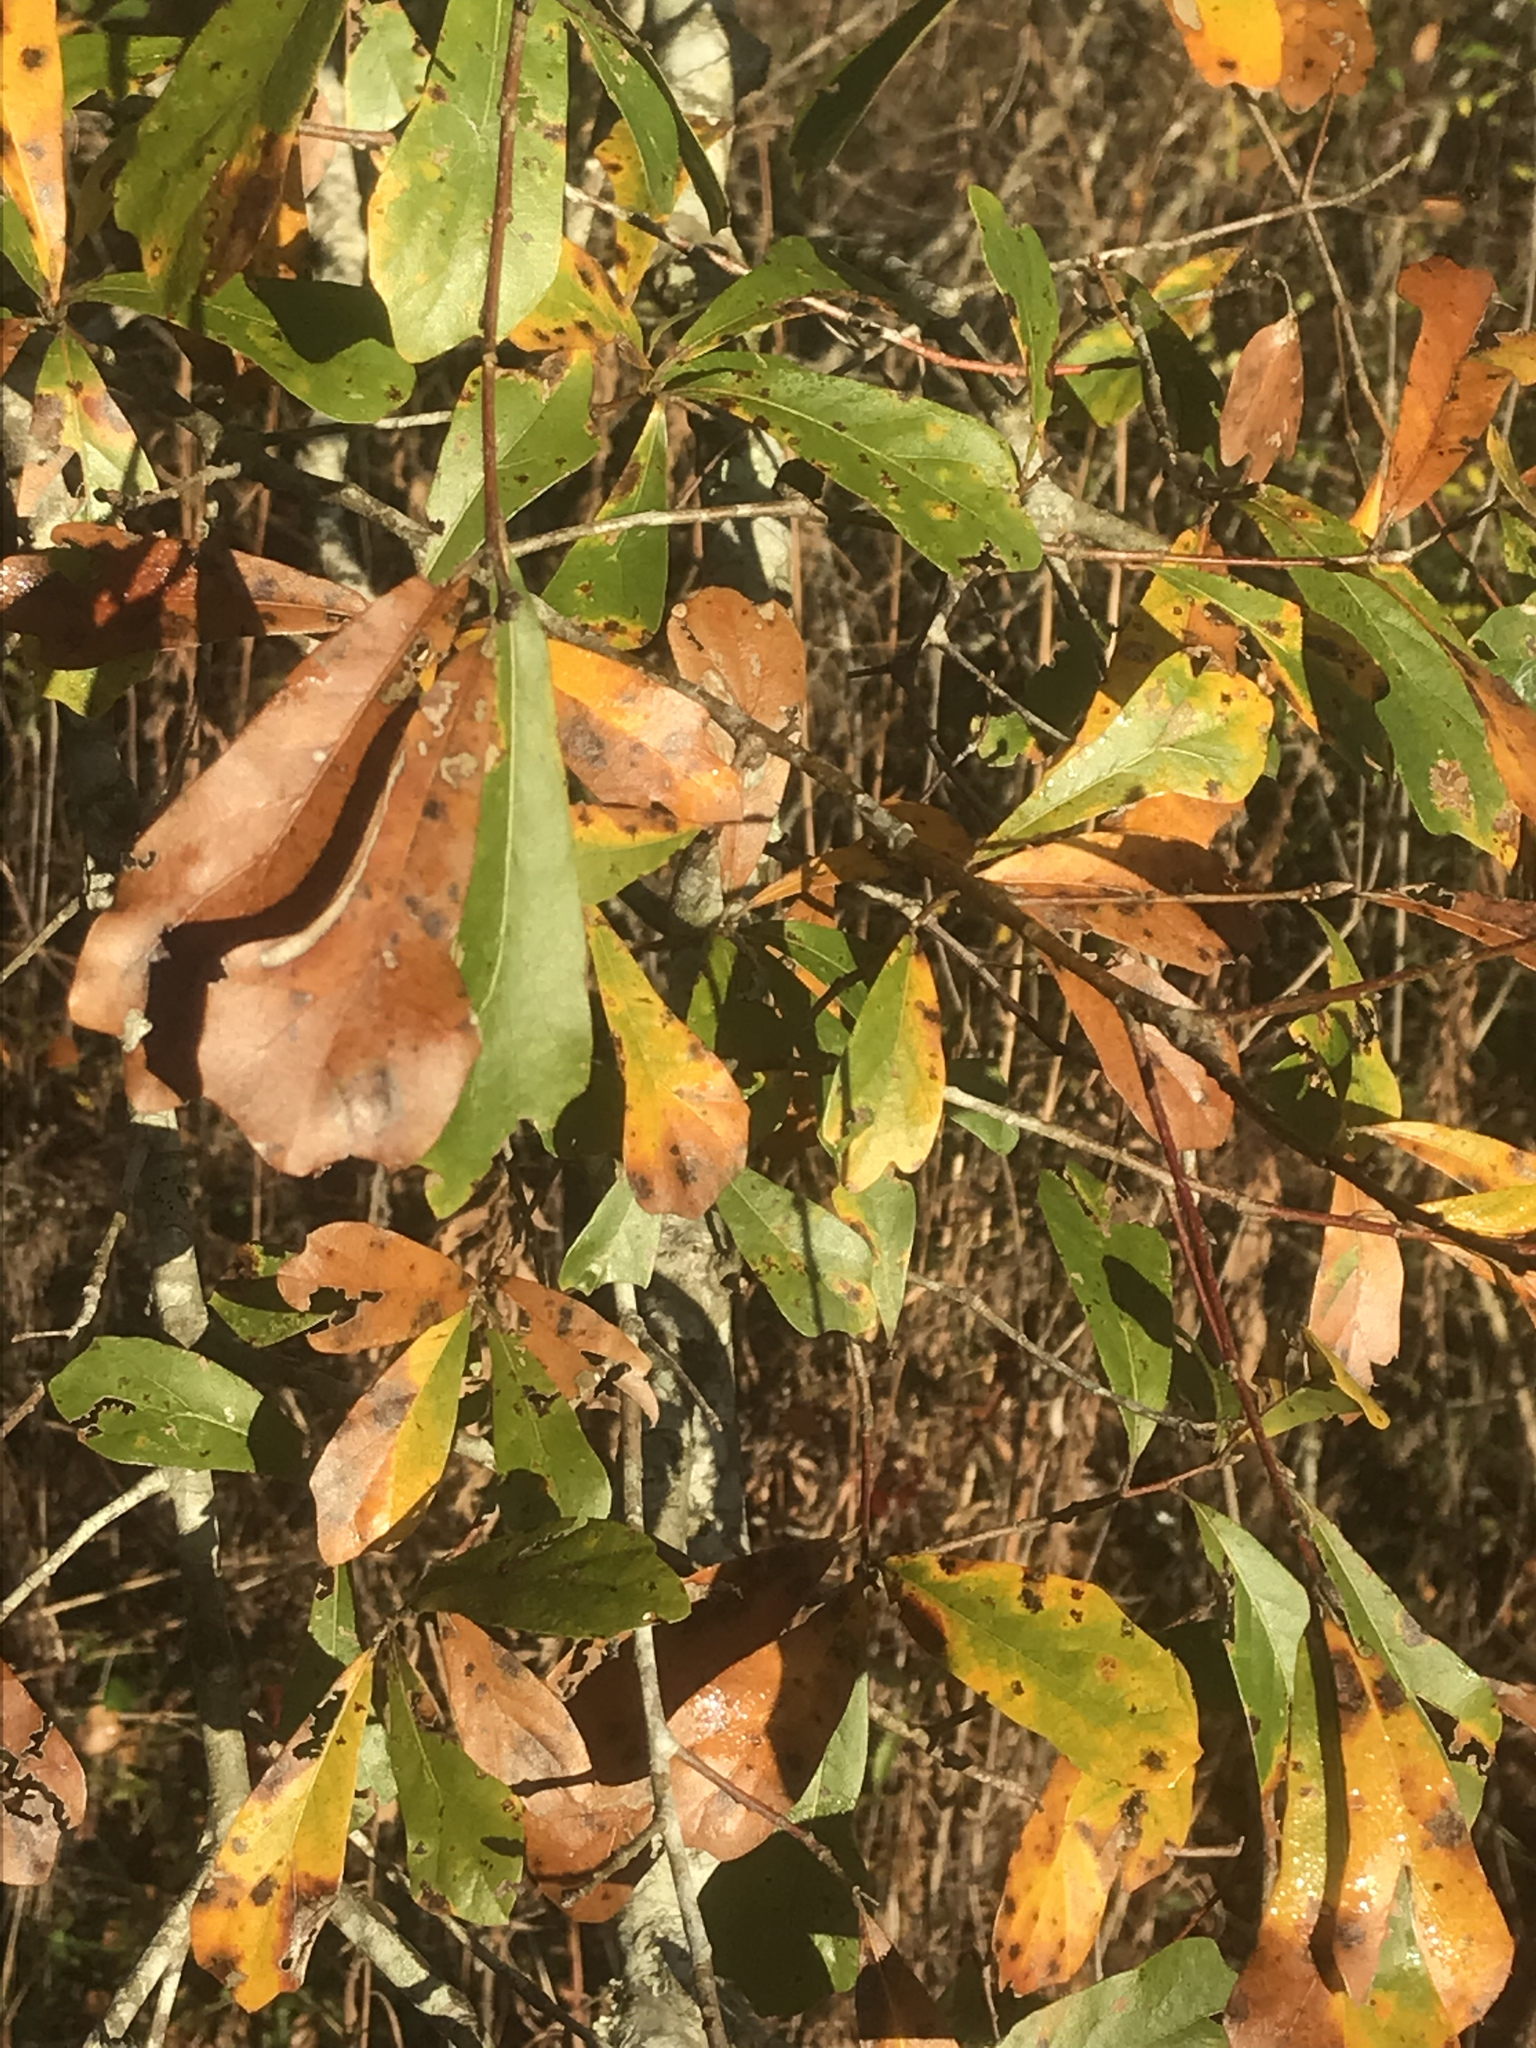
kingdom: Plantae
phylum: Tracheophyta
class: Magnoliopsida
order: Fagales
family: Fagaceae
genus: Quercus
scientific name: Quercus nigra
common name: Water oak
